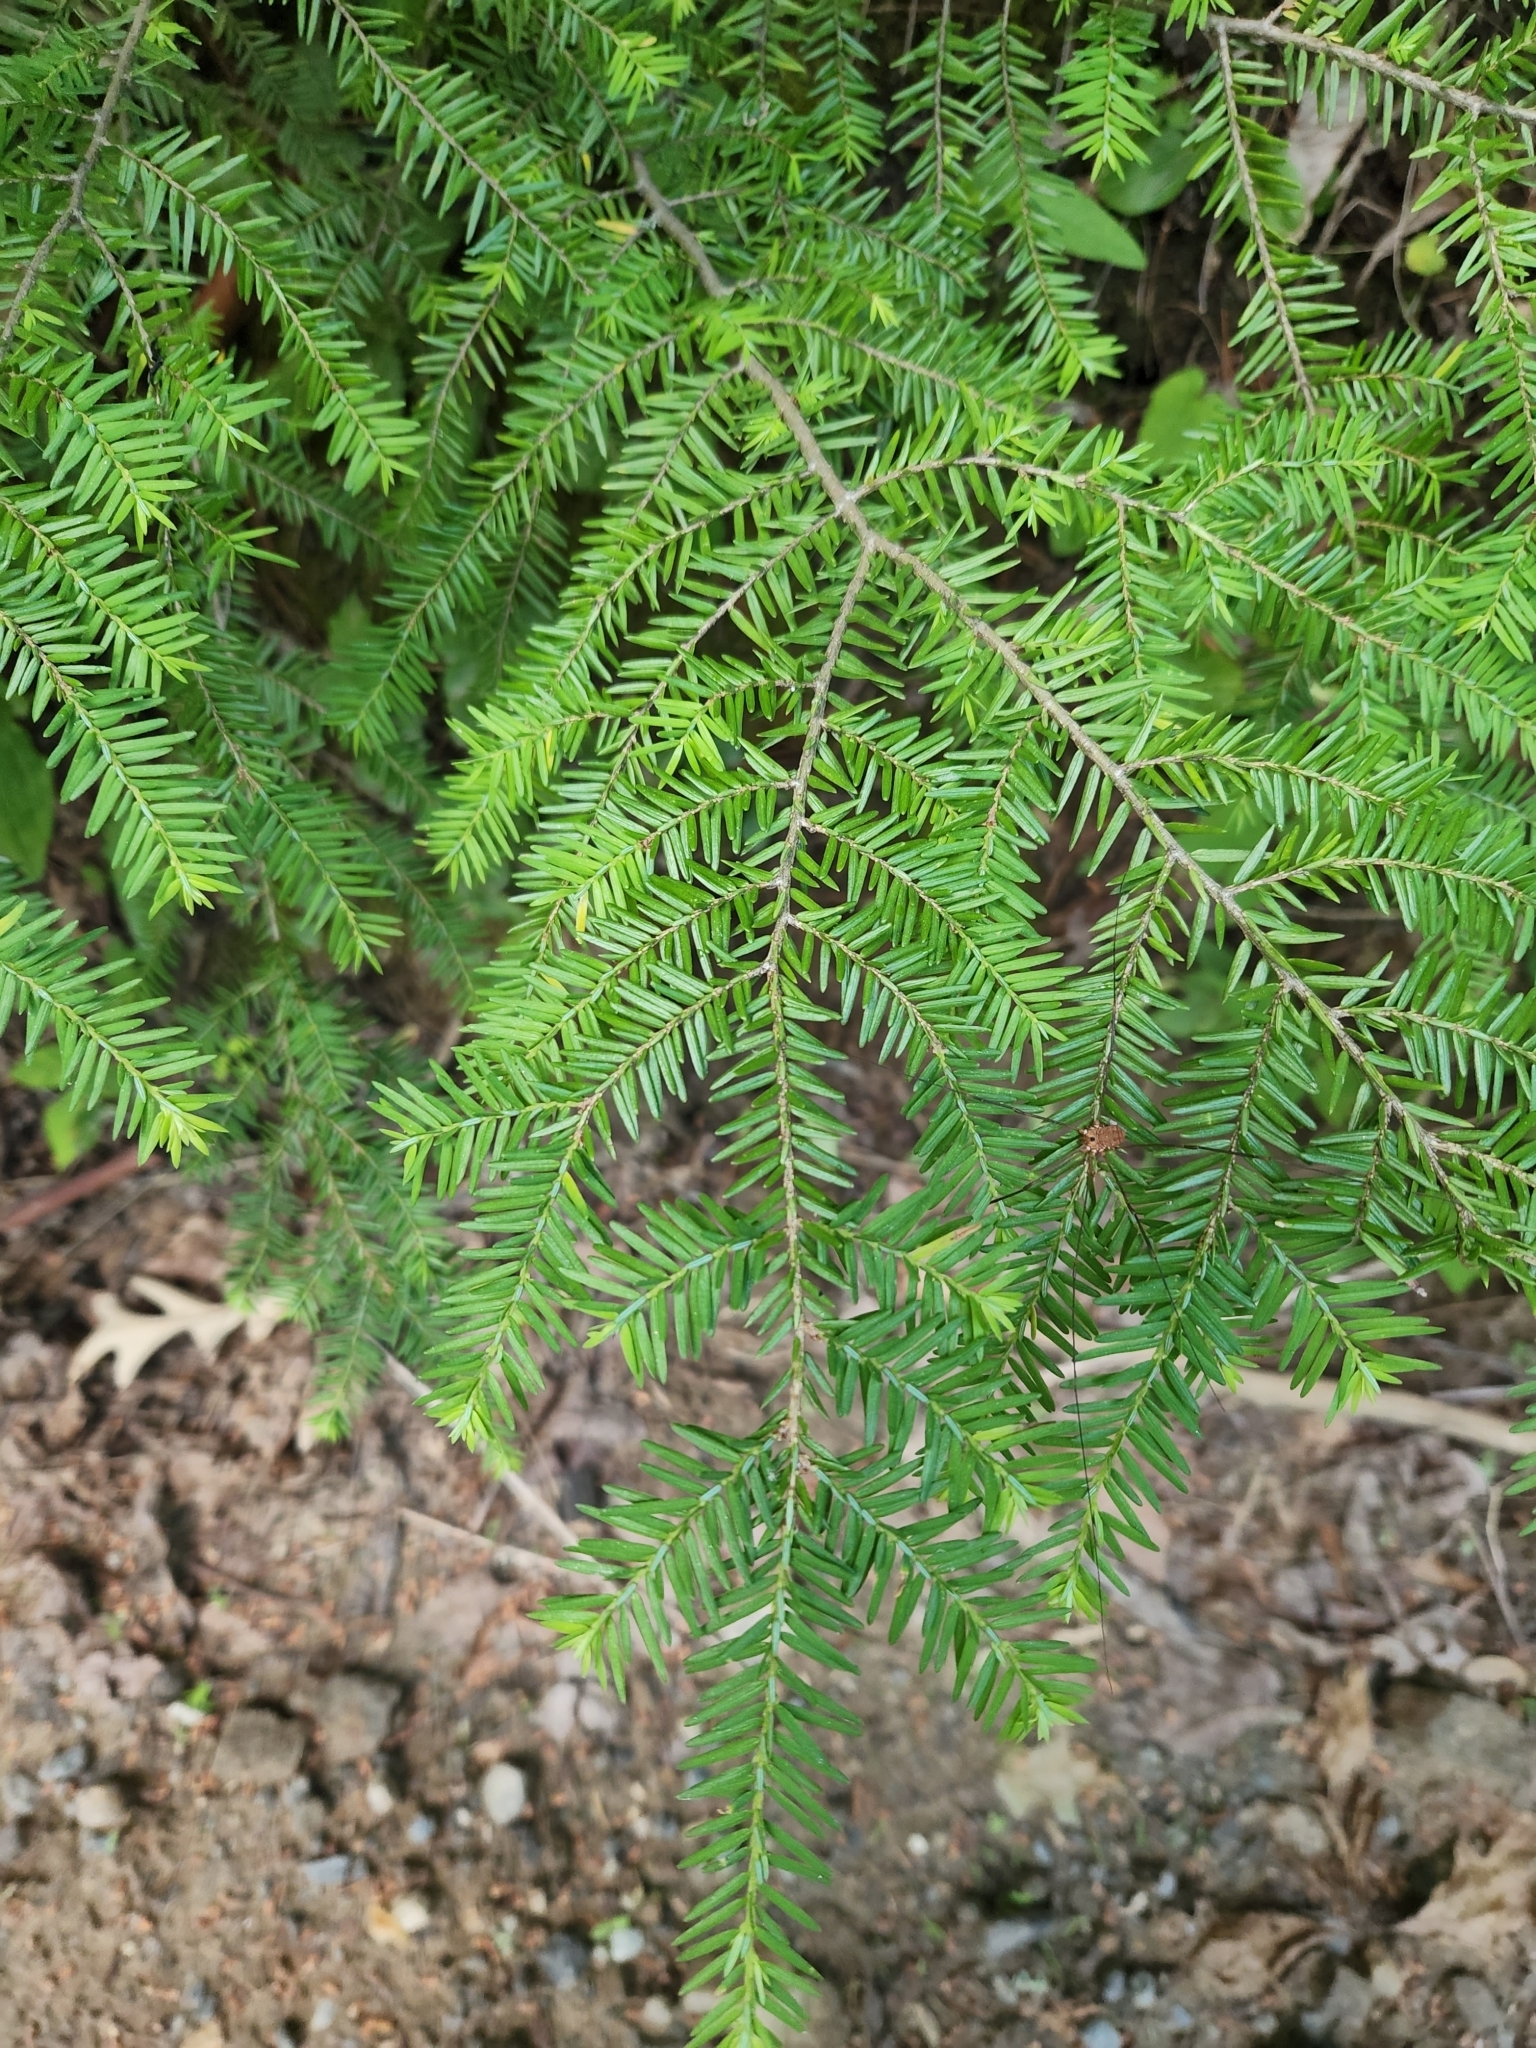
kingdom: Plantae
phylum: Tracheophyta
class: Pinopsida
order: Pinales
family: Pinaceae
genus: Tsuga
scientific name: Tsuga canadensis
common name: Eastern hemlock
